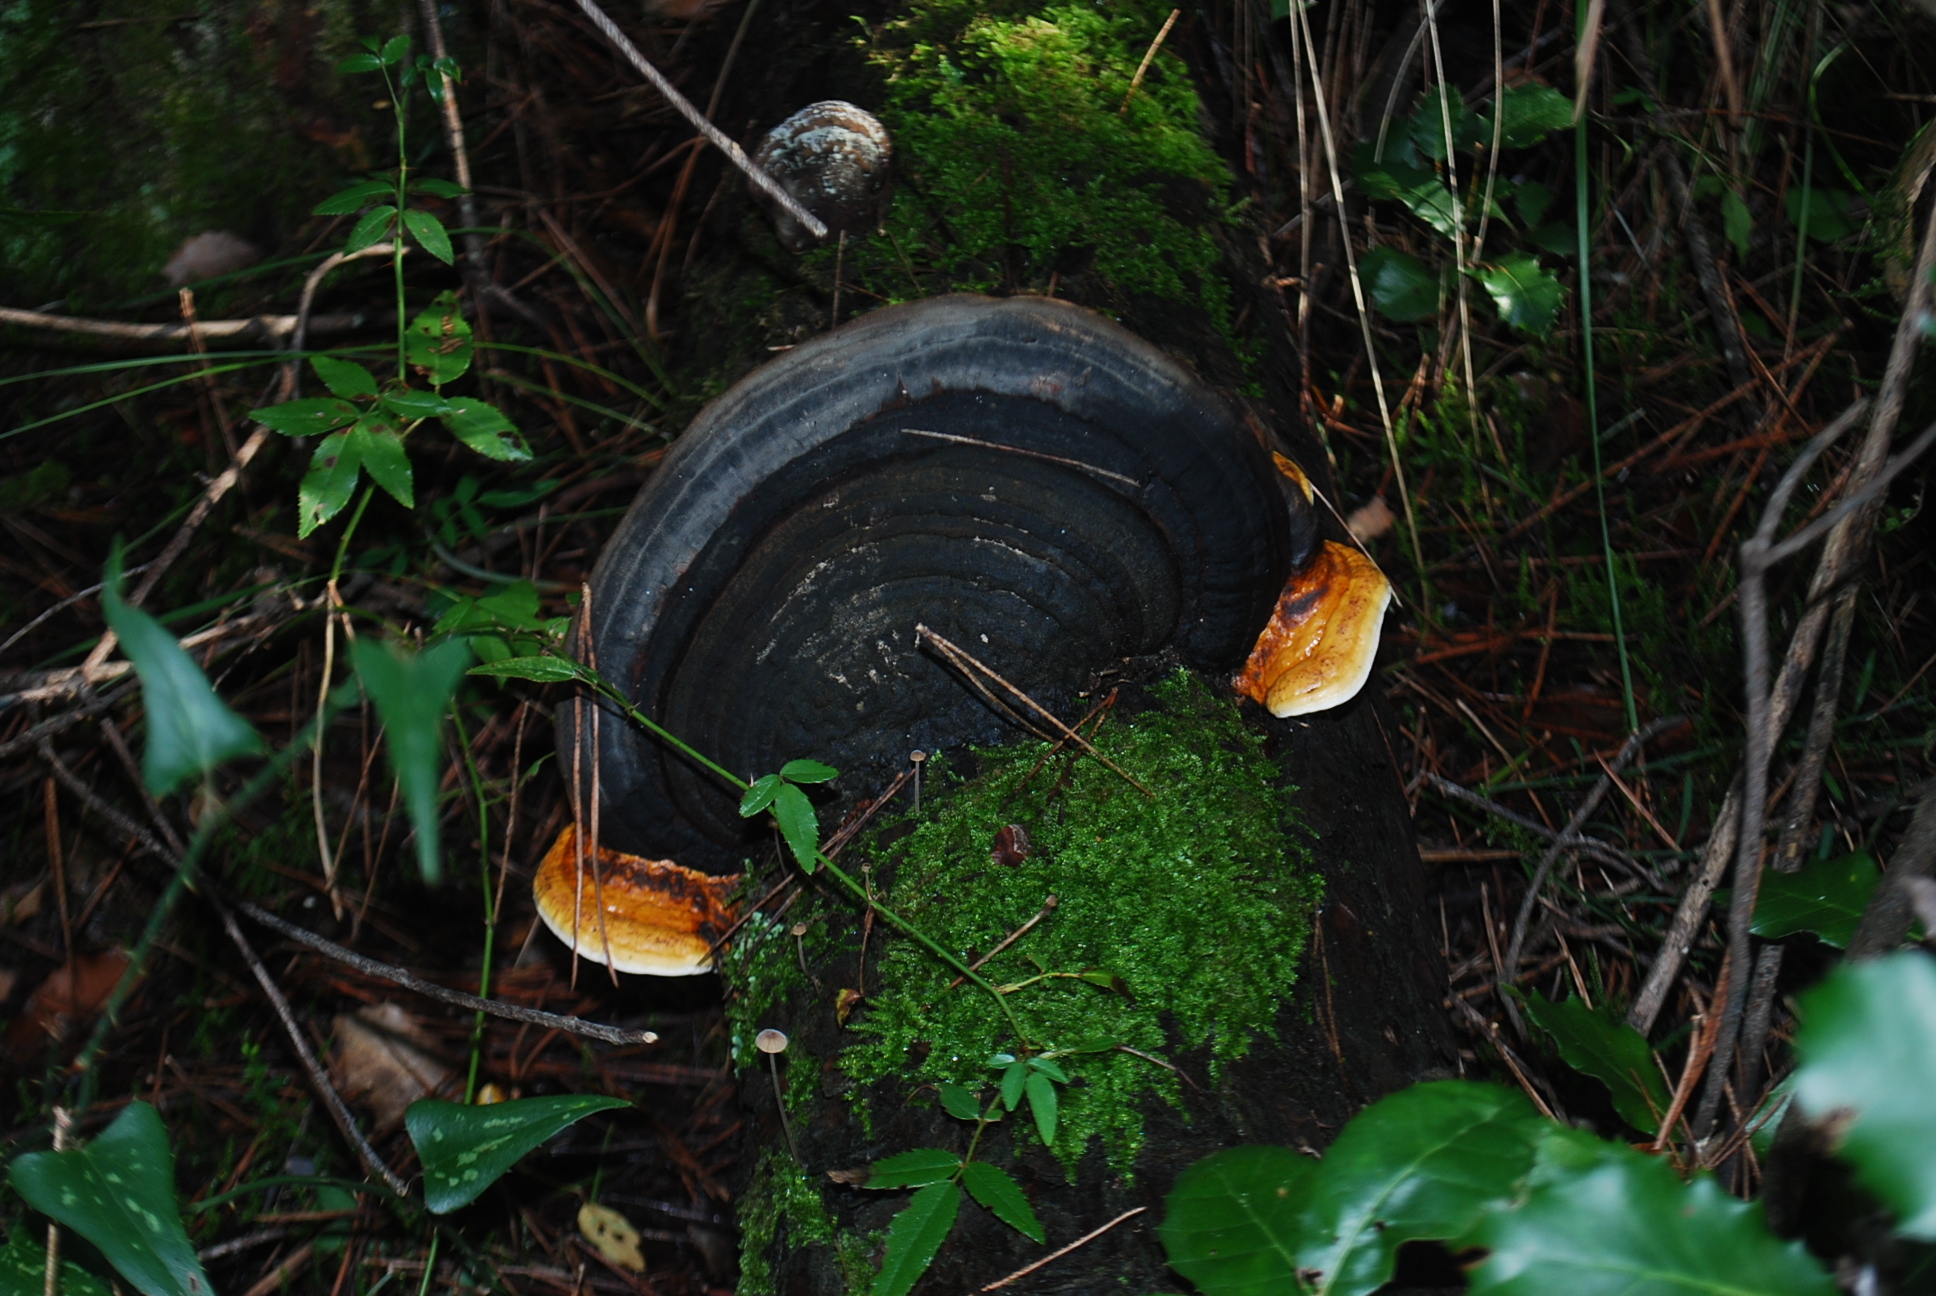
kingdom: Fungi
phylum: Basidiomycota
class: Agaricomycetes
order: Polyporales
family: Fomitopsidaceae
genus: Fomitopsis
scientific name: Fomitopsis pinicola
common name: Red-belted bracket
